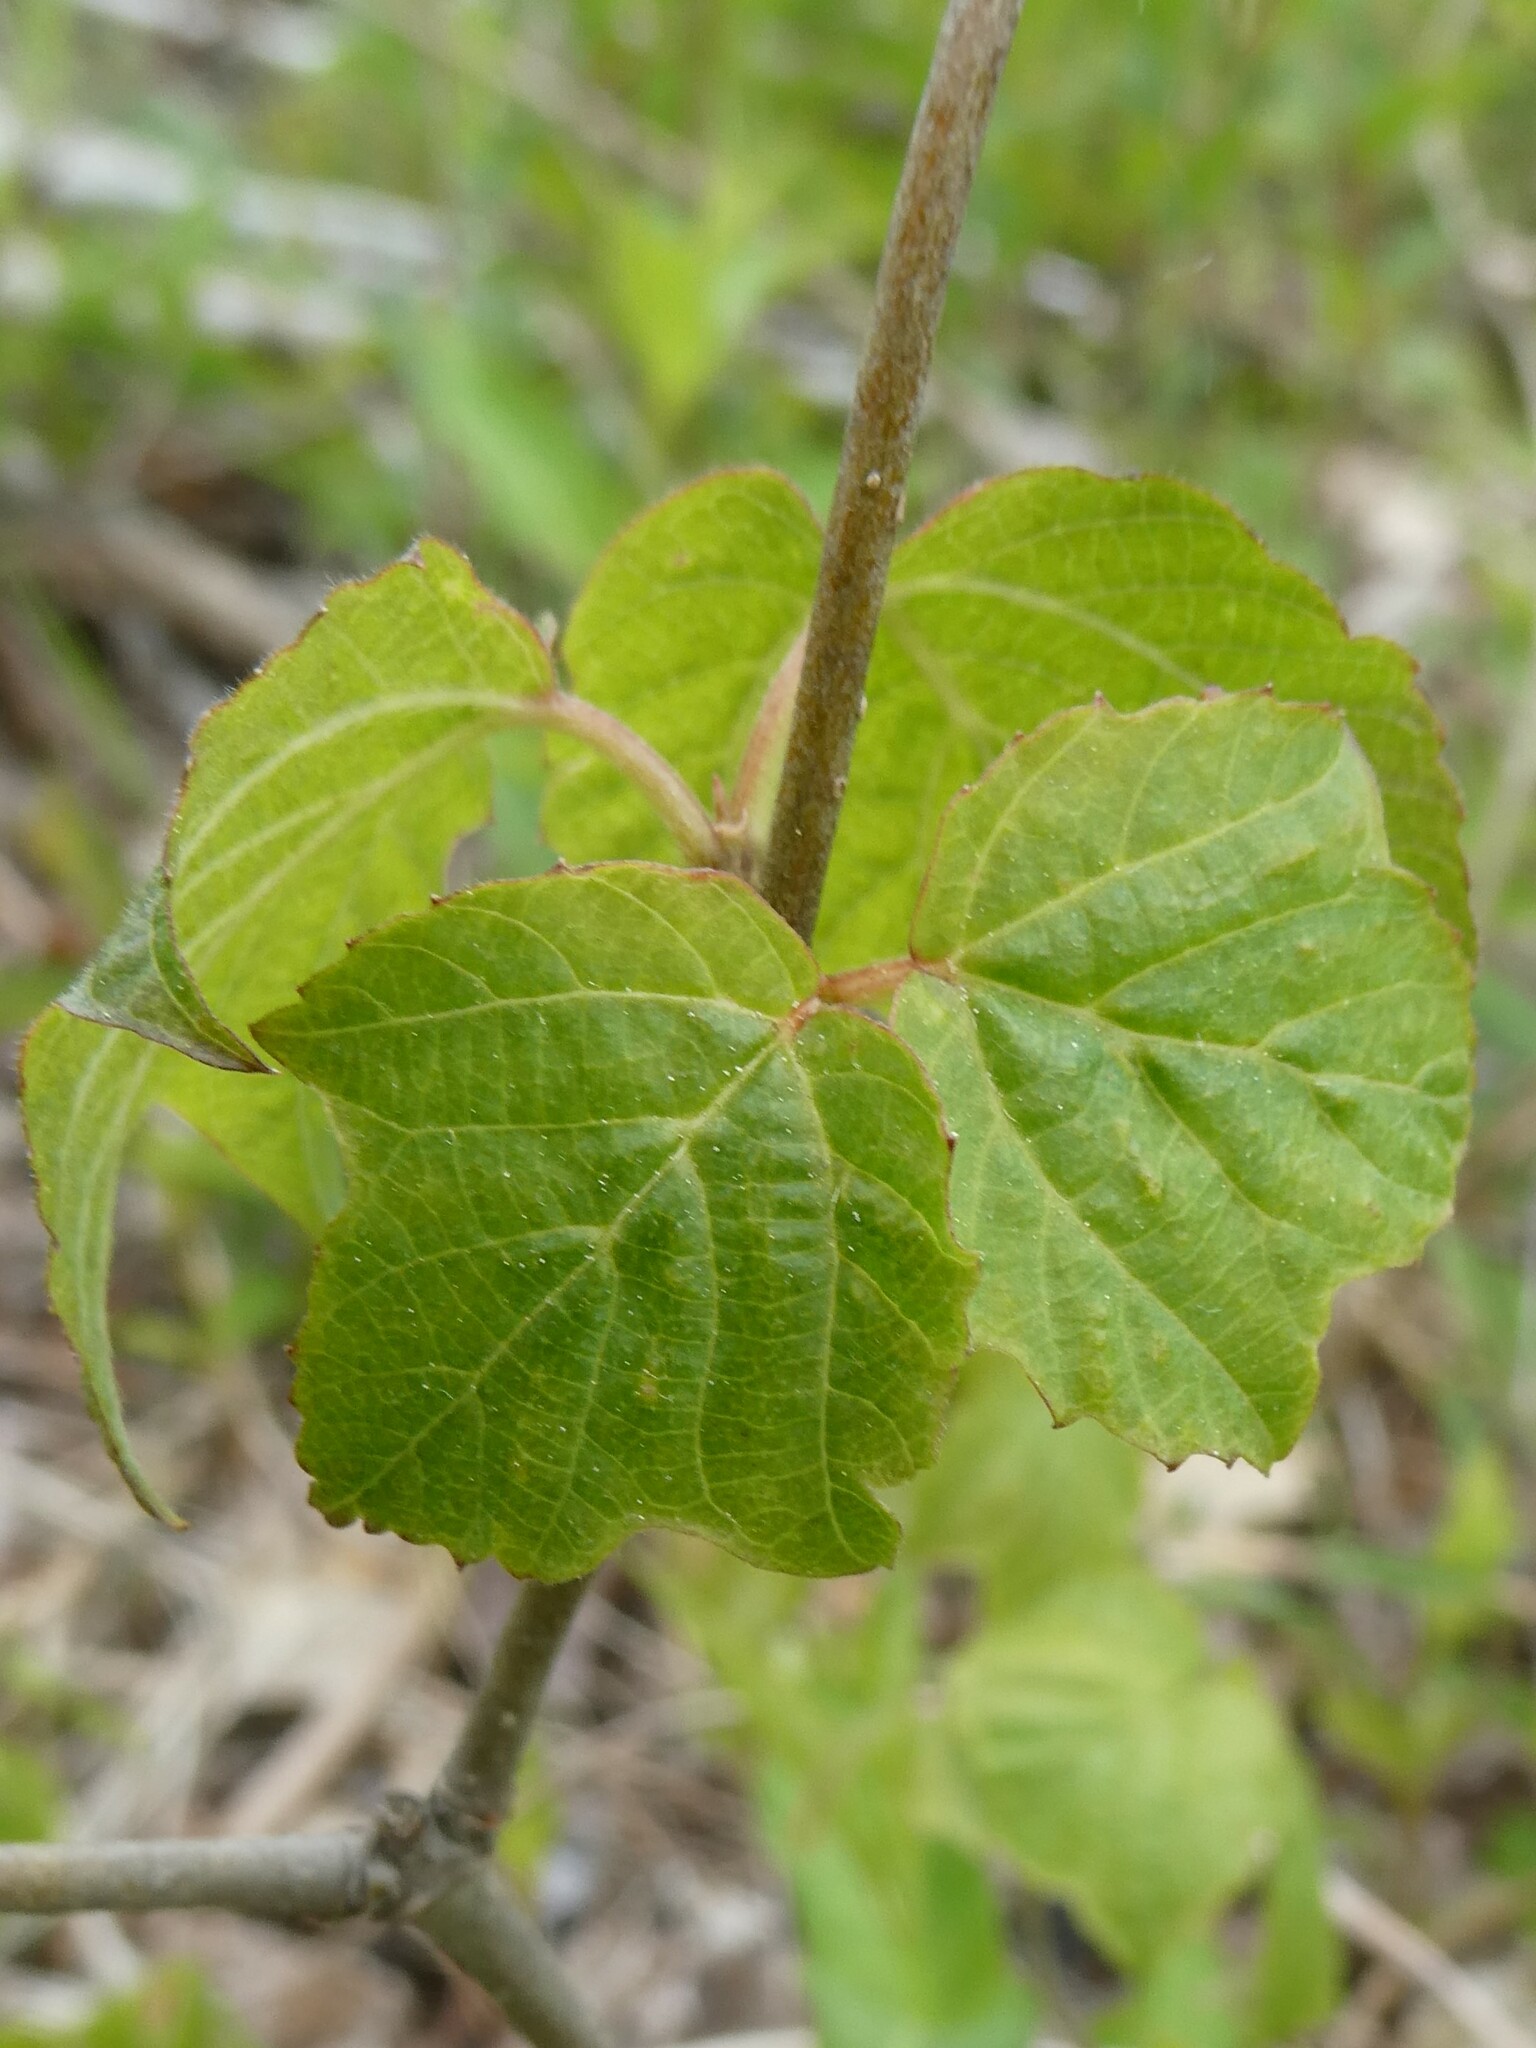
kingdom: Plantae
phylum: Tracheophyta
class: Magnoliopsida
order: Dipsacales
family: Viburnaceae
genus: Viburnum
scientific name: Viburnum acerifolium
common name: Dockmackie
